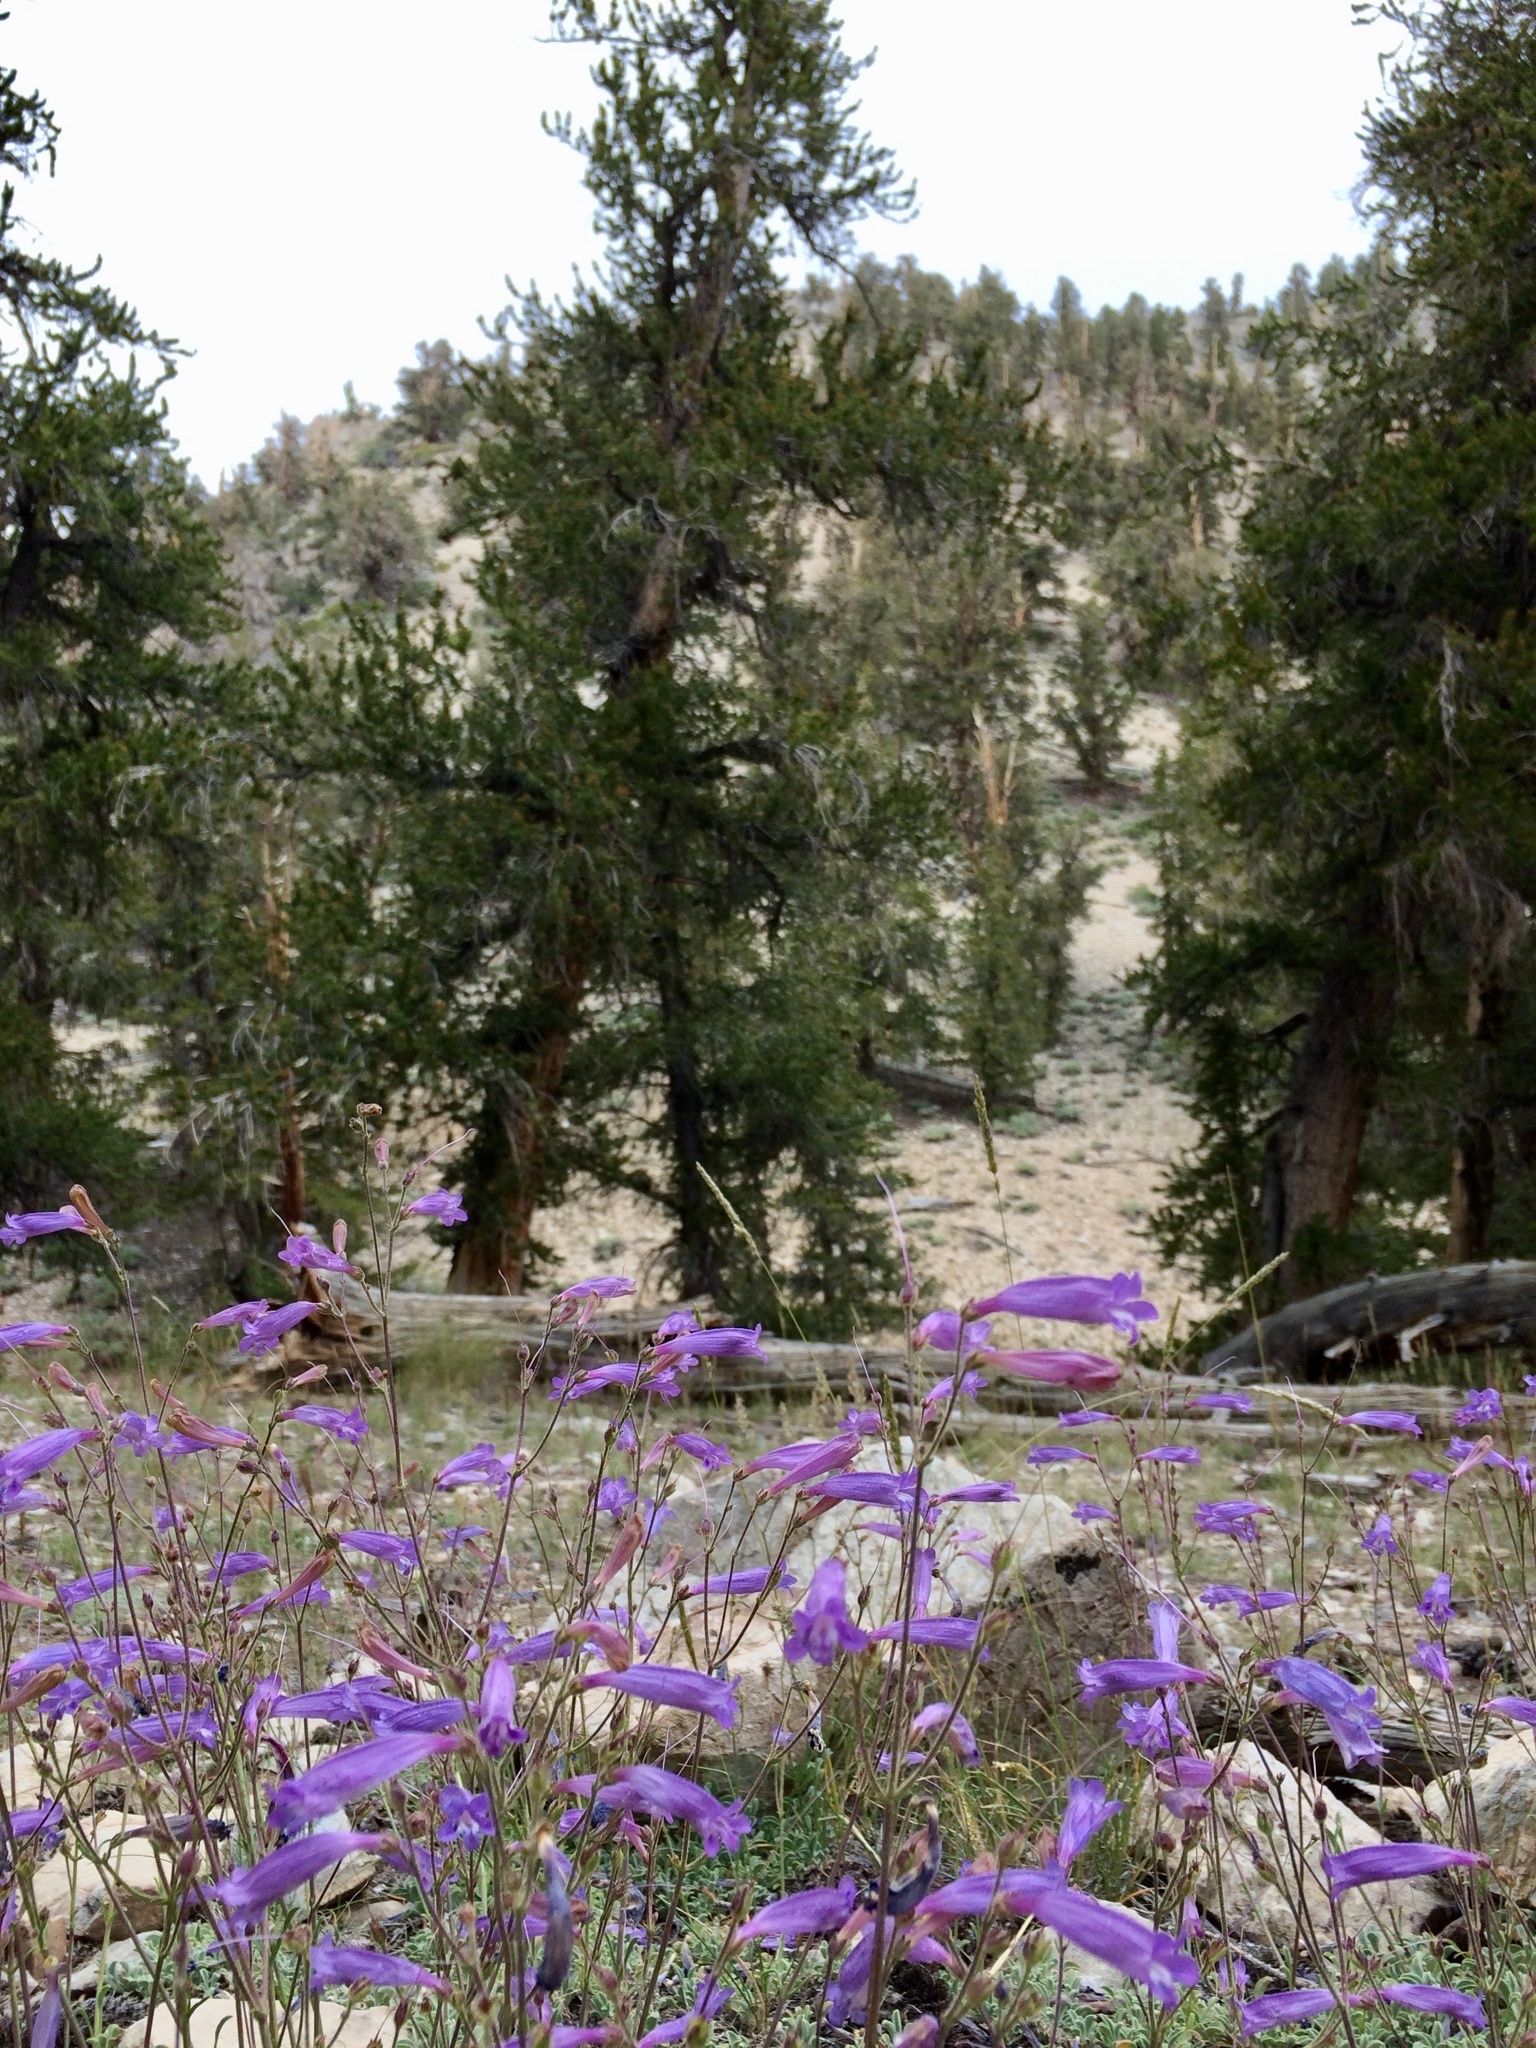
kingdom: Plantae
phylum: Tracheophyta
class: Magnoliopsida
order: Lamiales
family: Plantaginaceae
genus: Penstemon
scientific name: Penstemon scapoides
